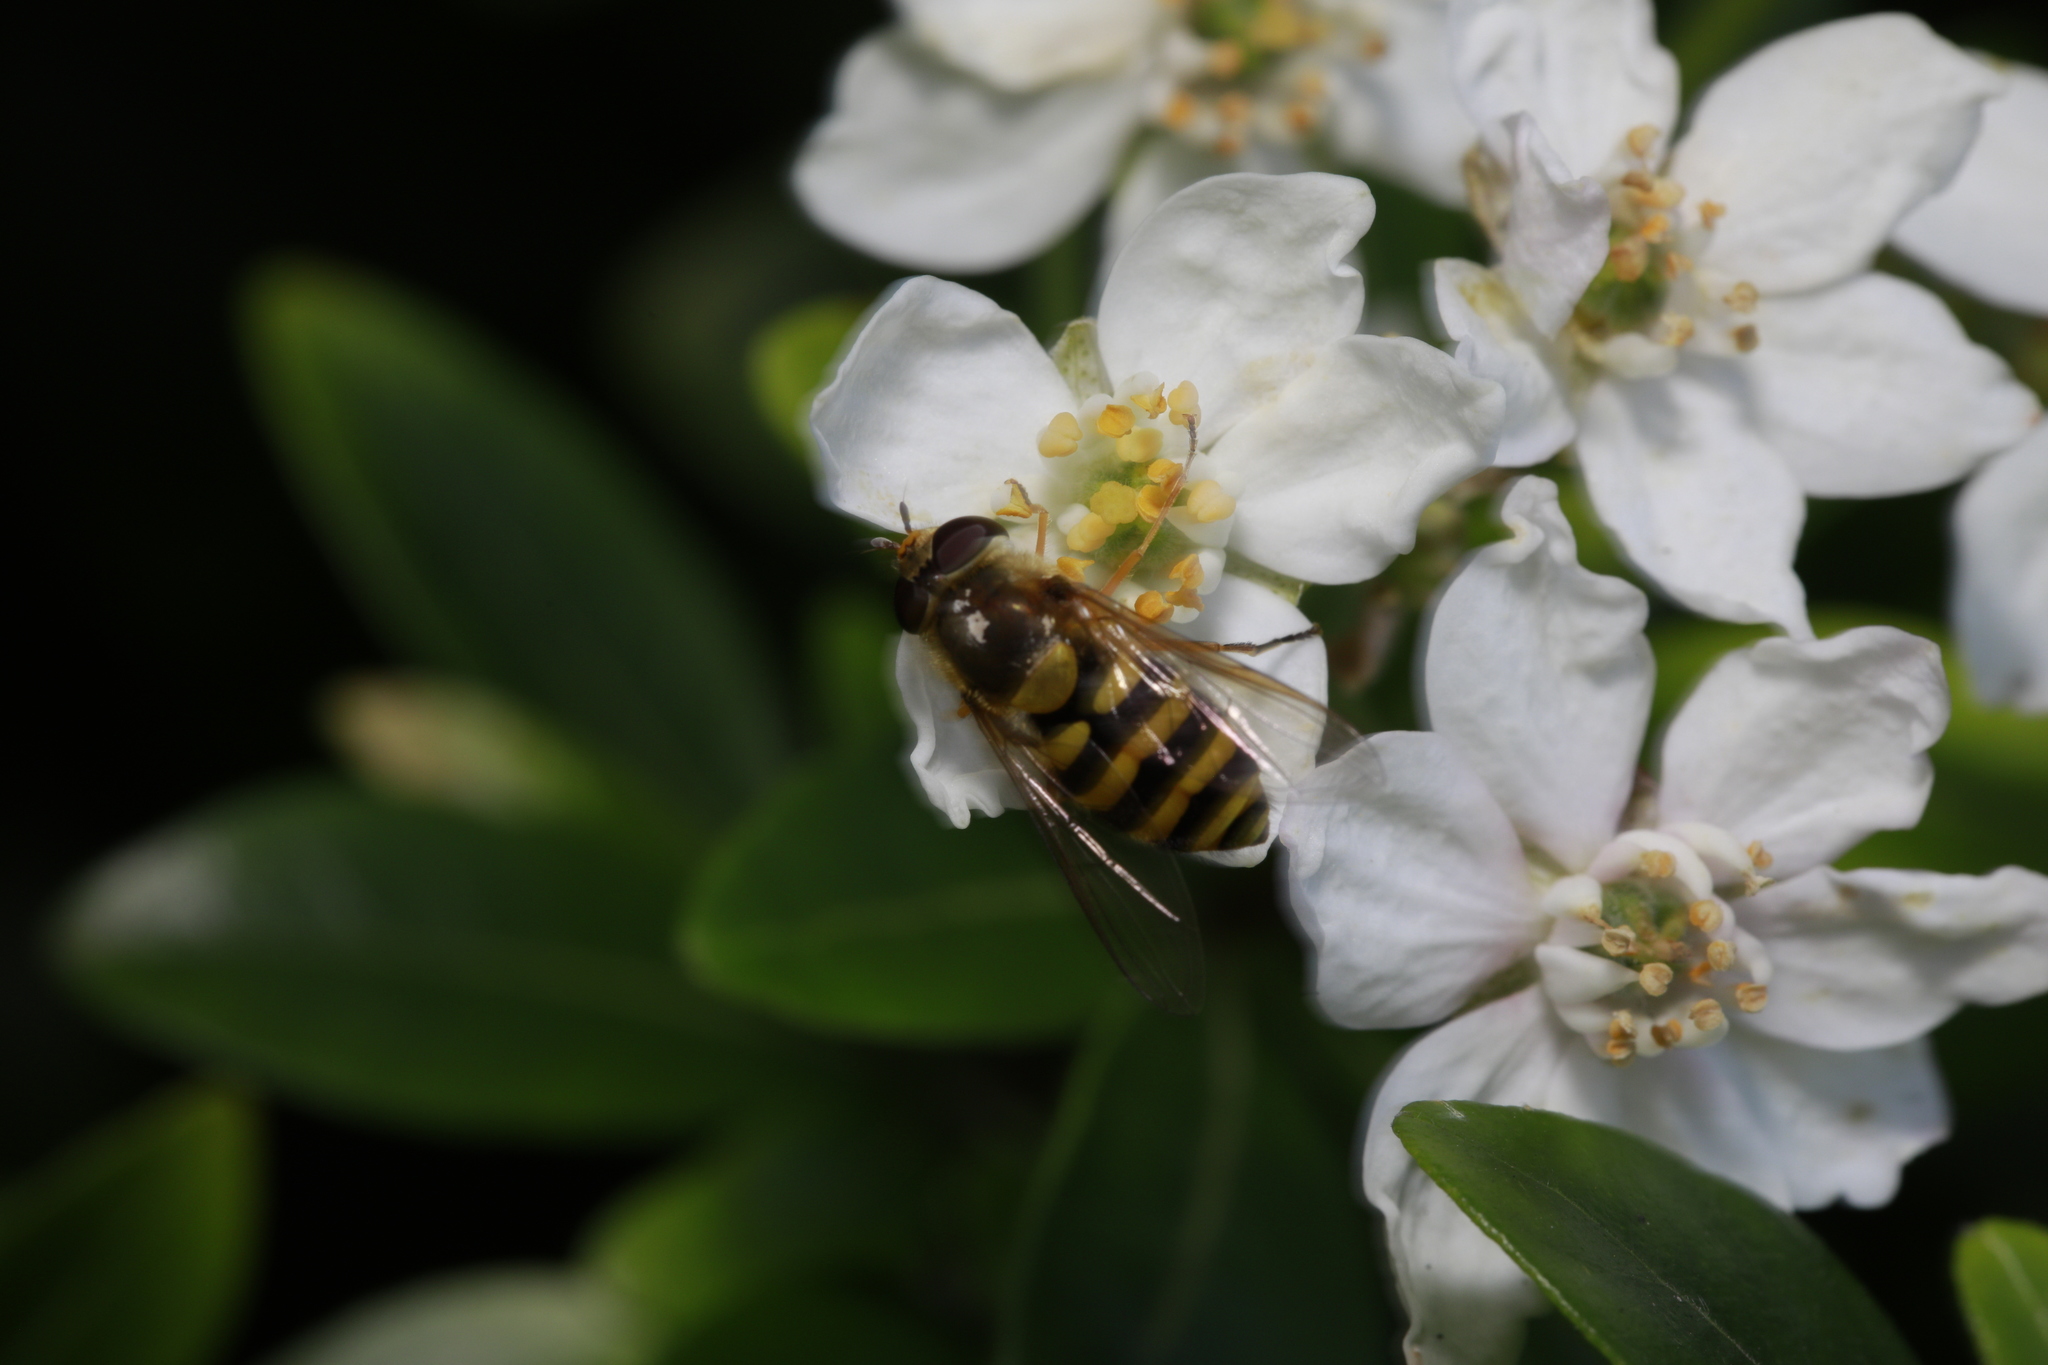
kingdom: Animalia
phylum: Arthropoda
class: Insecta
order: Diptera
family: Syrphidae
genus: Syrphus
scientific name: Syrphus
